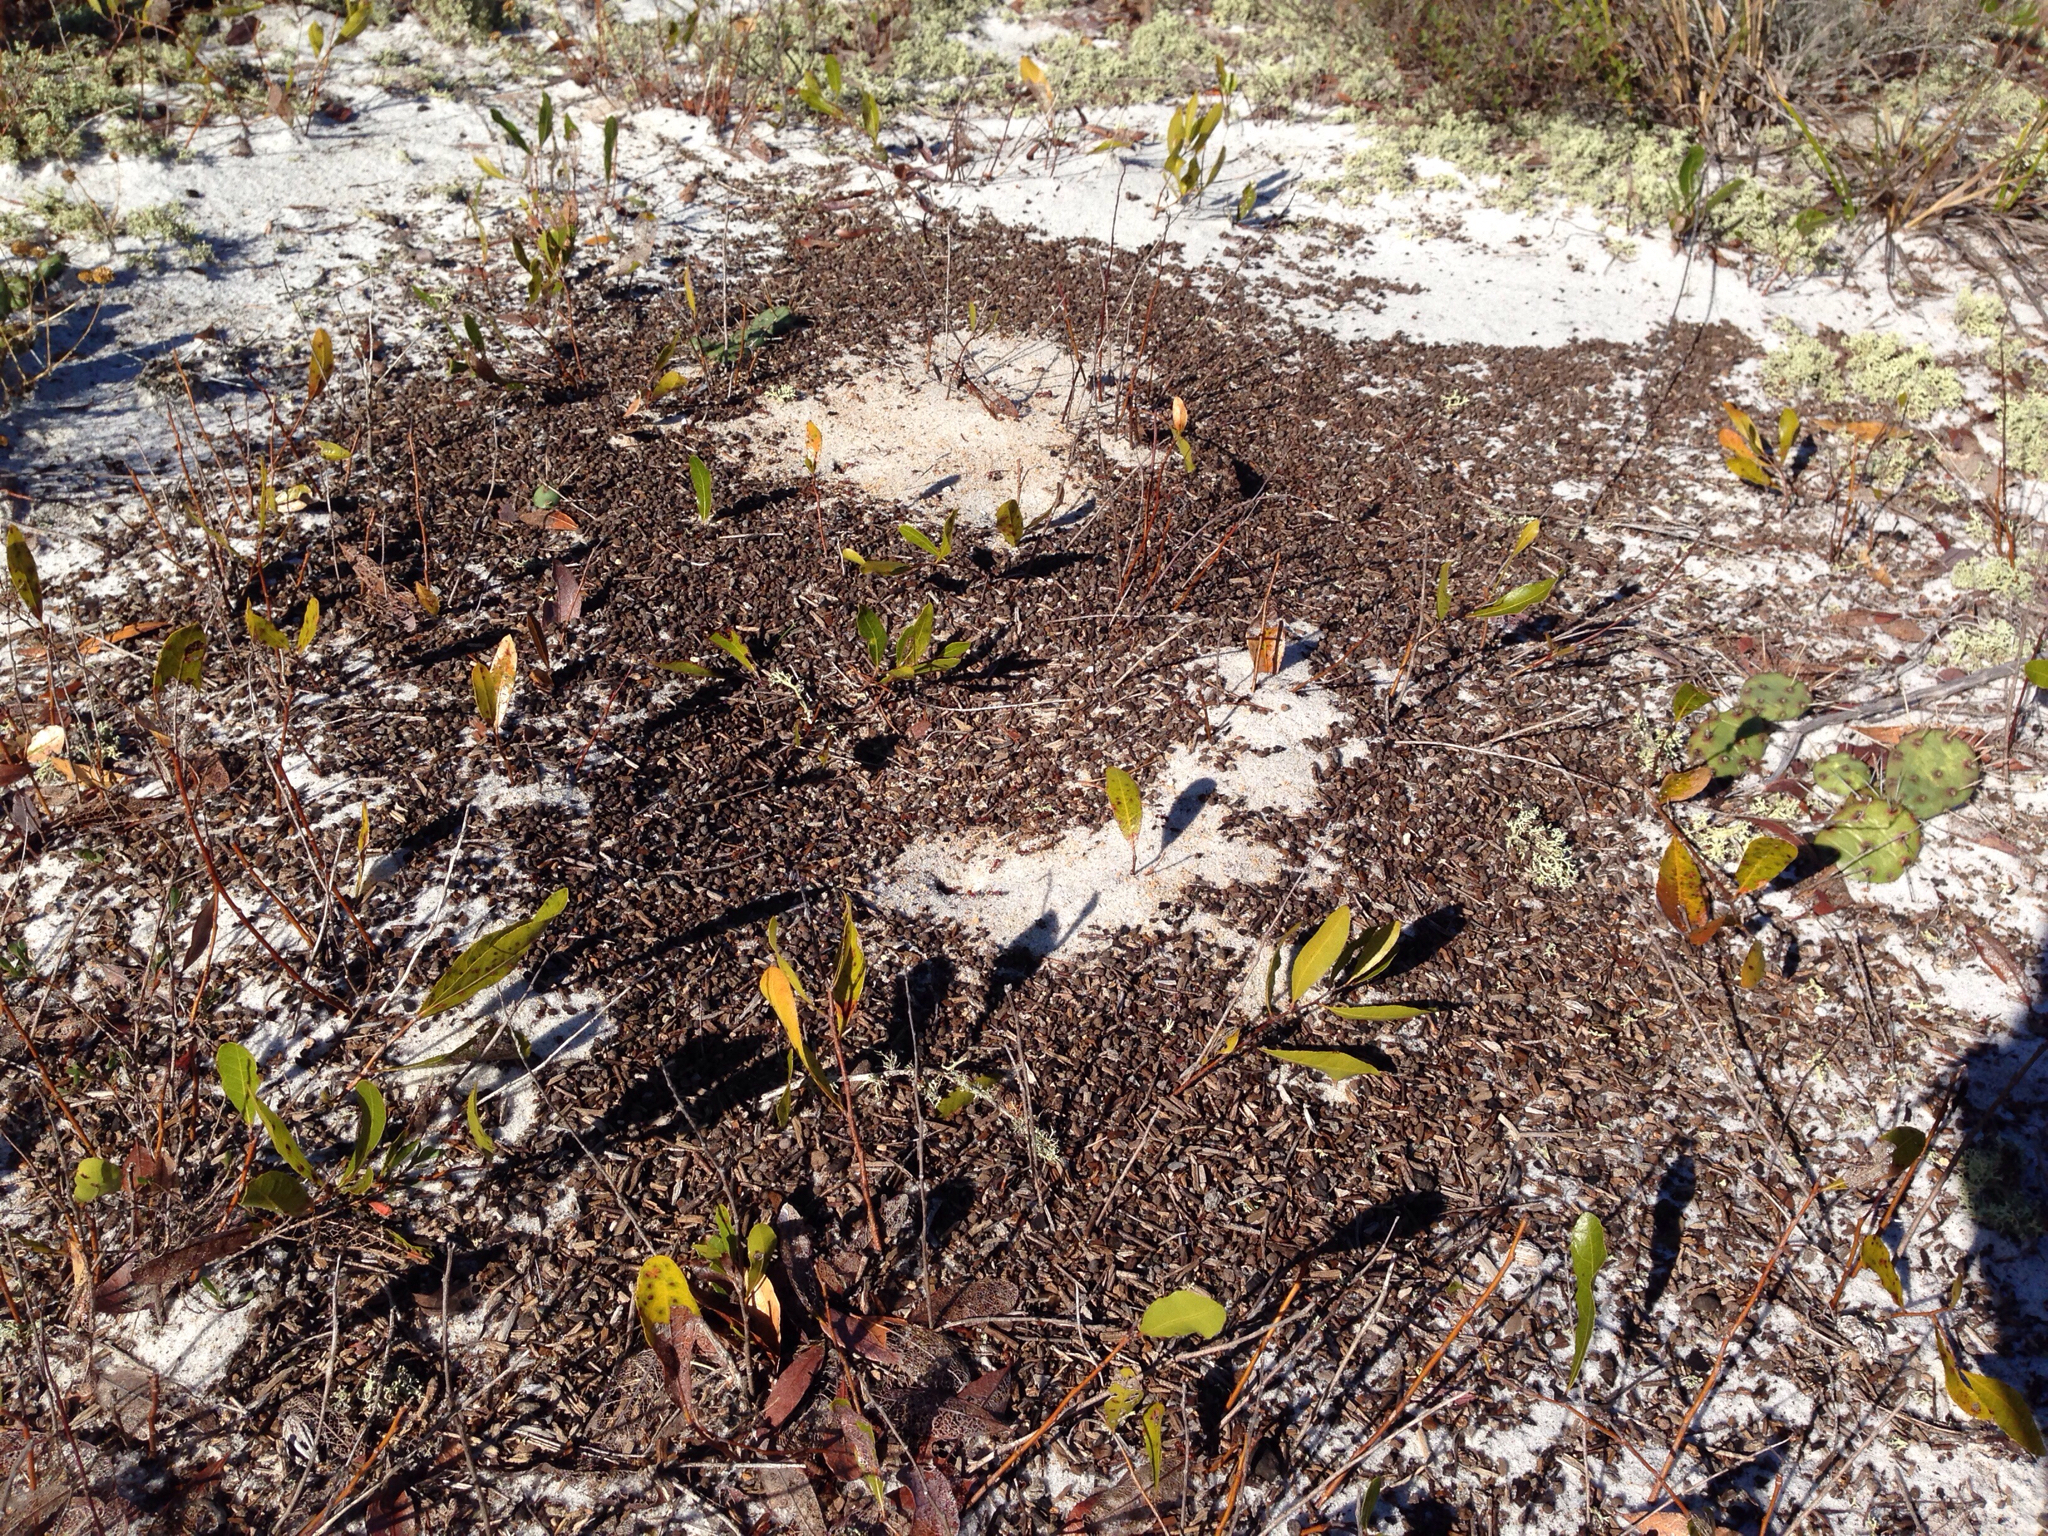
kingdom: Animalia
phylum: Arthropoda
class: Insecta
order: Hymenoptera
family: Formicidae
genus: Pogonomyrmex
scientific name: Pogonomyrmex badius
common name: Florida harvester ant
